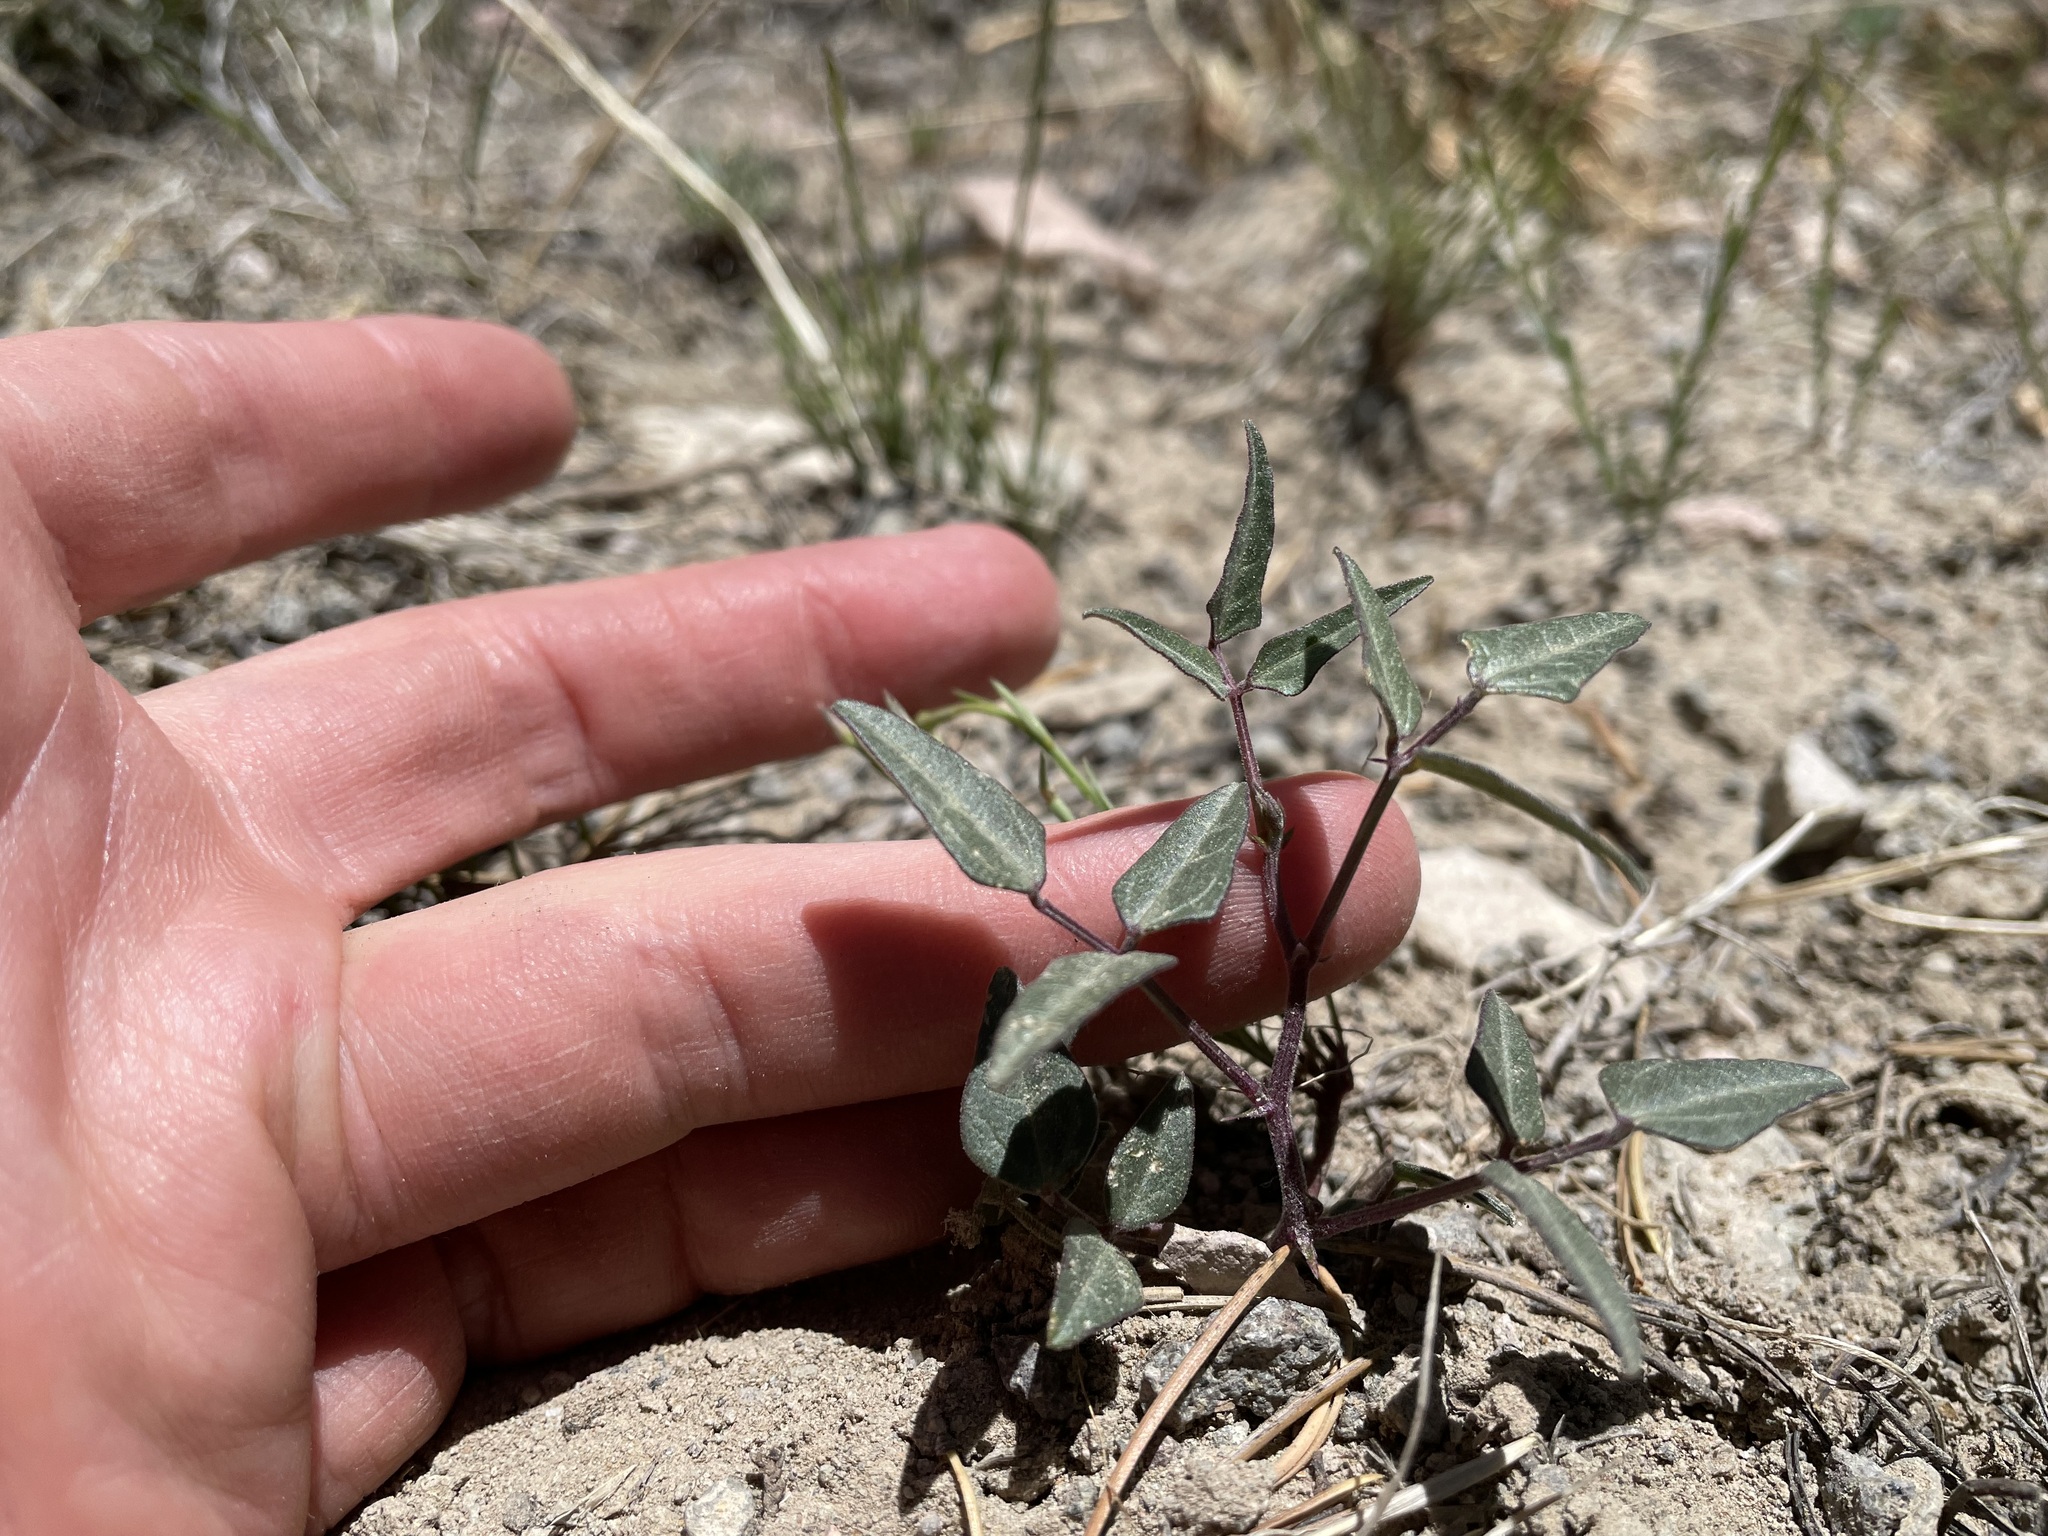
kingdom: Plantae
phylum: Tracheophyta
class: Magnoliopsida
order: Fabales
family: Fabaceae
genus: Phaseolus
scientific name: Phaseolus angustissimus
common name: Slimleaf bean
